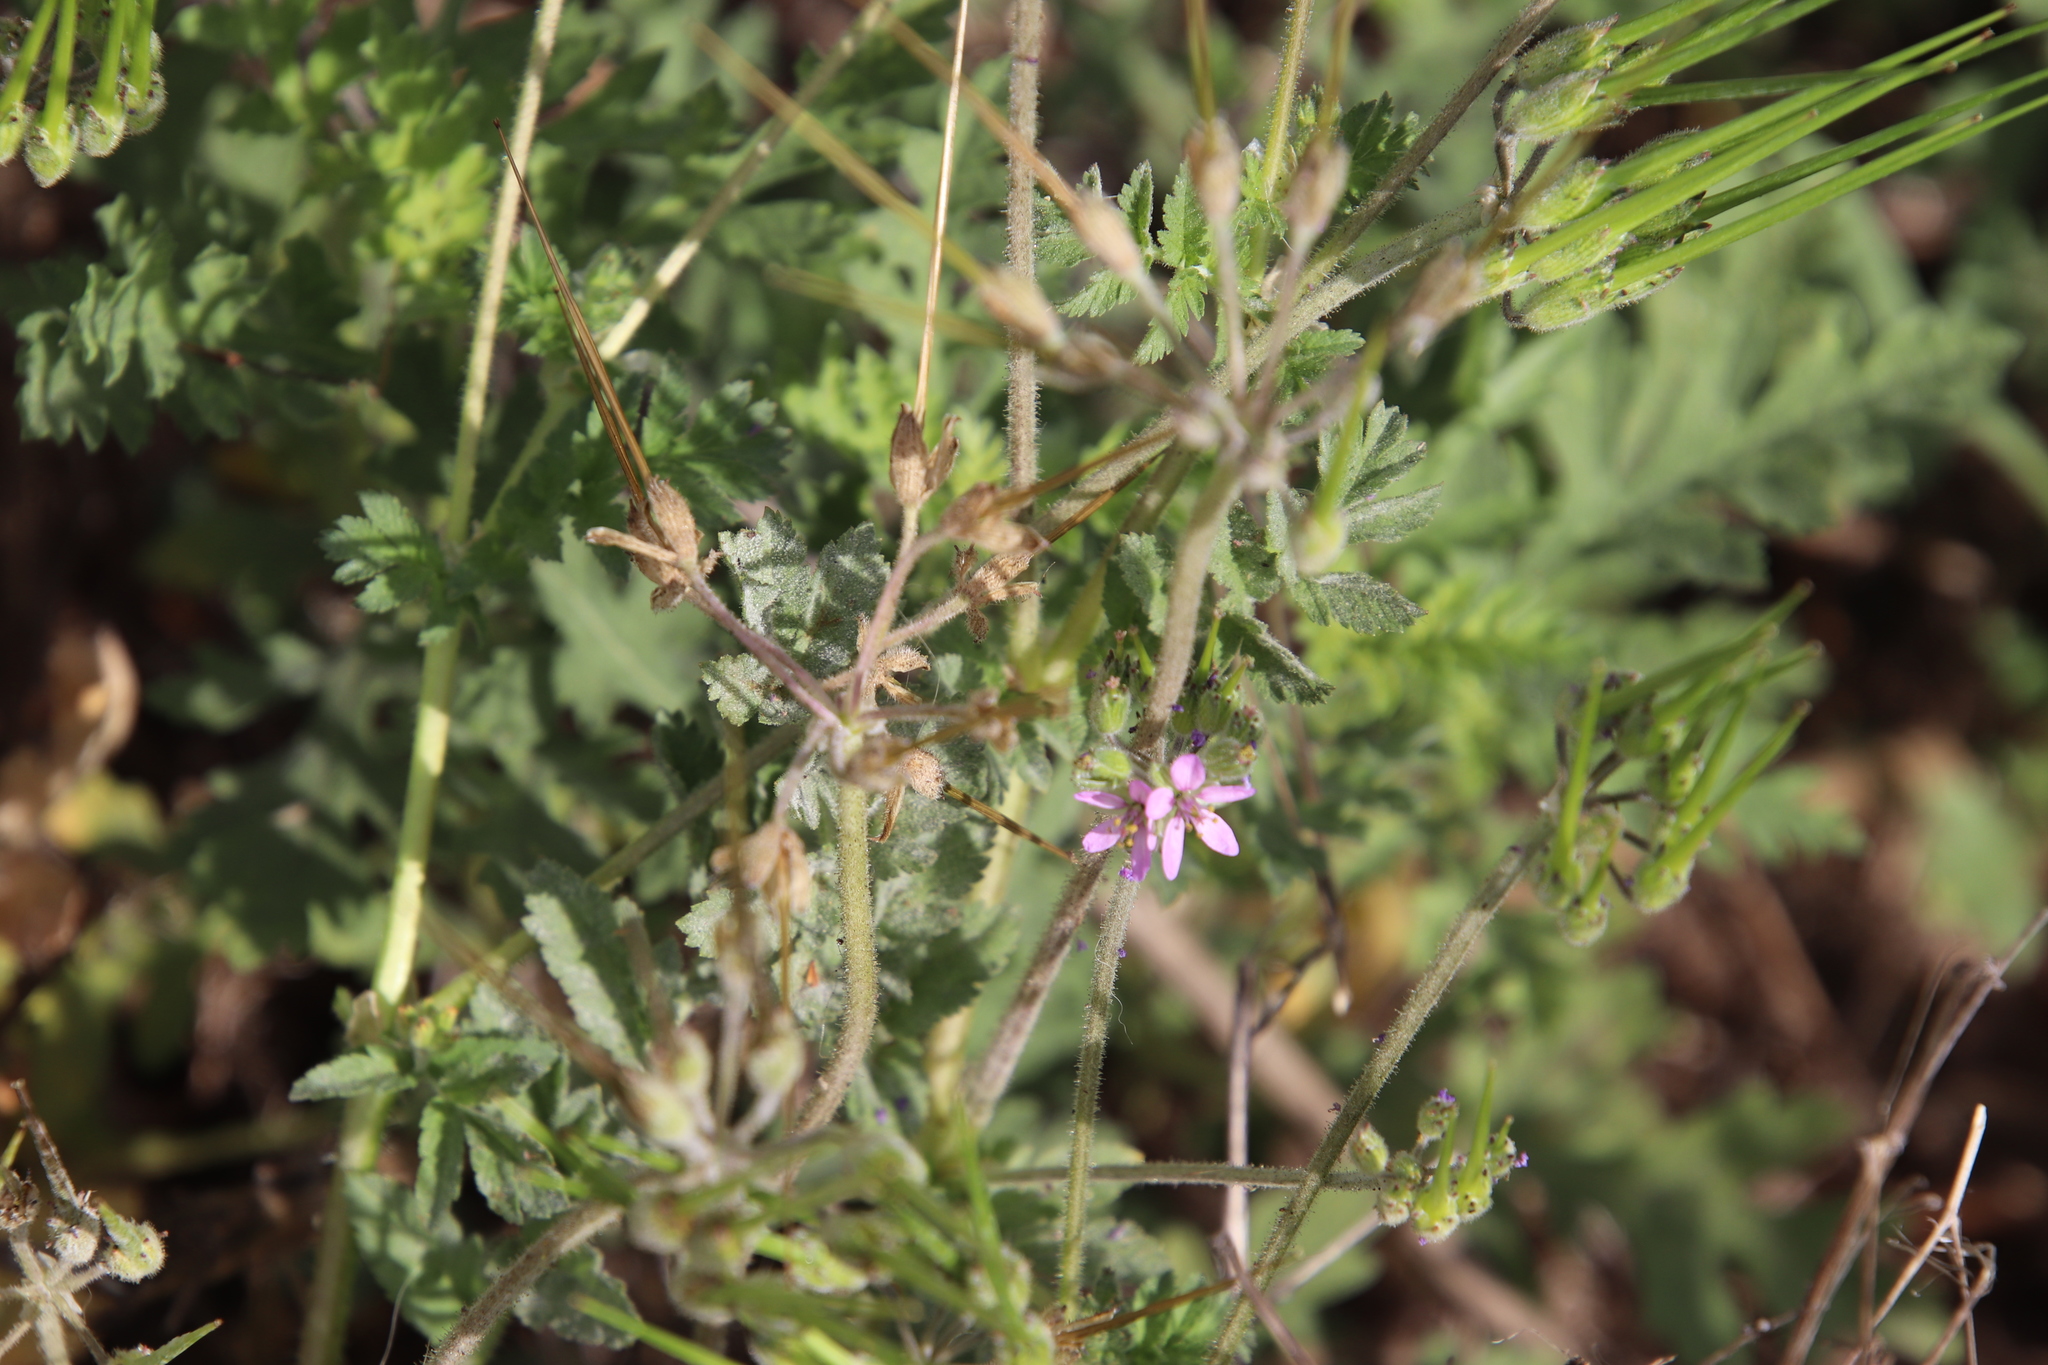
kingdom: Plantae
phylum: Tracheophyta
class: Magnoliopsida
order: Geraniales
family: Geraniaceae
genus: Erodium
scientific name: Erodium moschatum
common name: Musk stork's-bill
